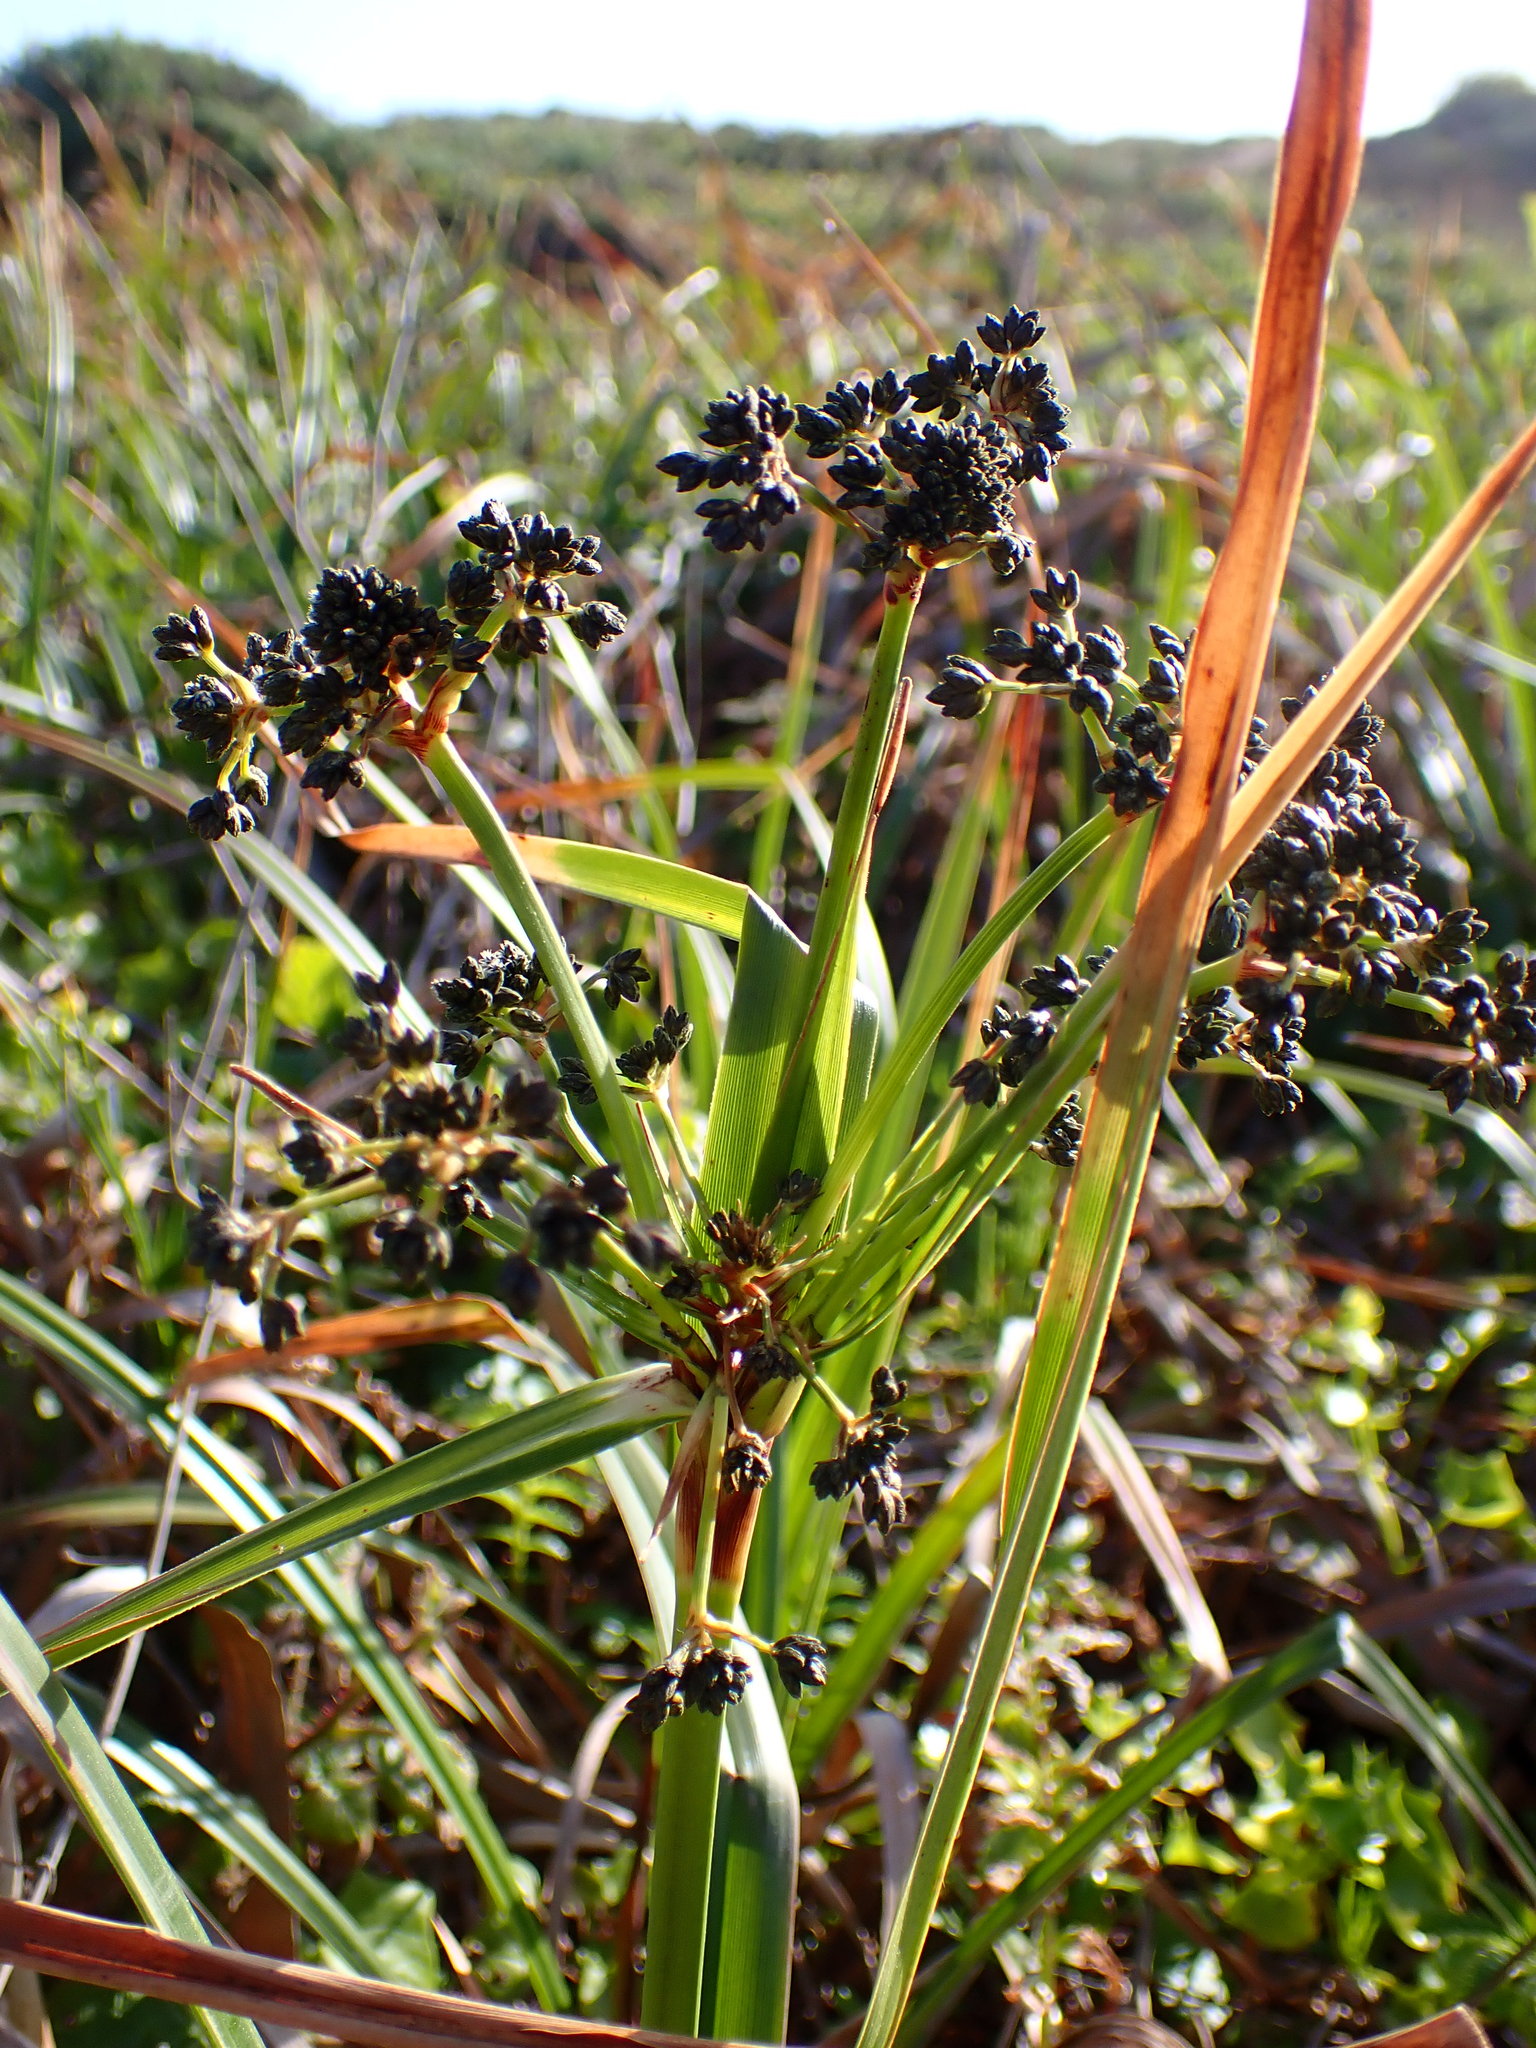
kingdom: Plantae
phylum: Tracheophyta
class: Liliopsida
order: Poales
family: Cyperaceae
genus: Scirpus
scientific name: Scirpus microcarpus
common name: Panicled bulrush
